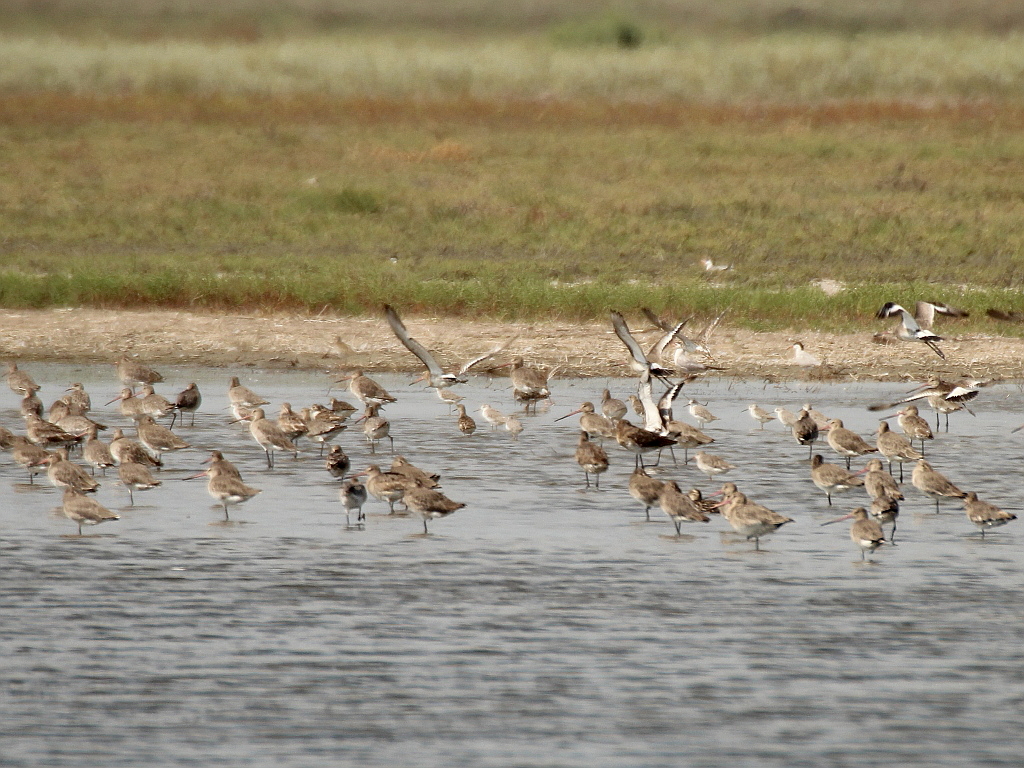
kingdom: Animalia
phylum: Chordata
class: Aves
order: Charadriiformes
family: Scolopacidae
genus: Limosa
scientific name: Limosa limosa
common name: Black-tailed godwit
